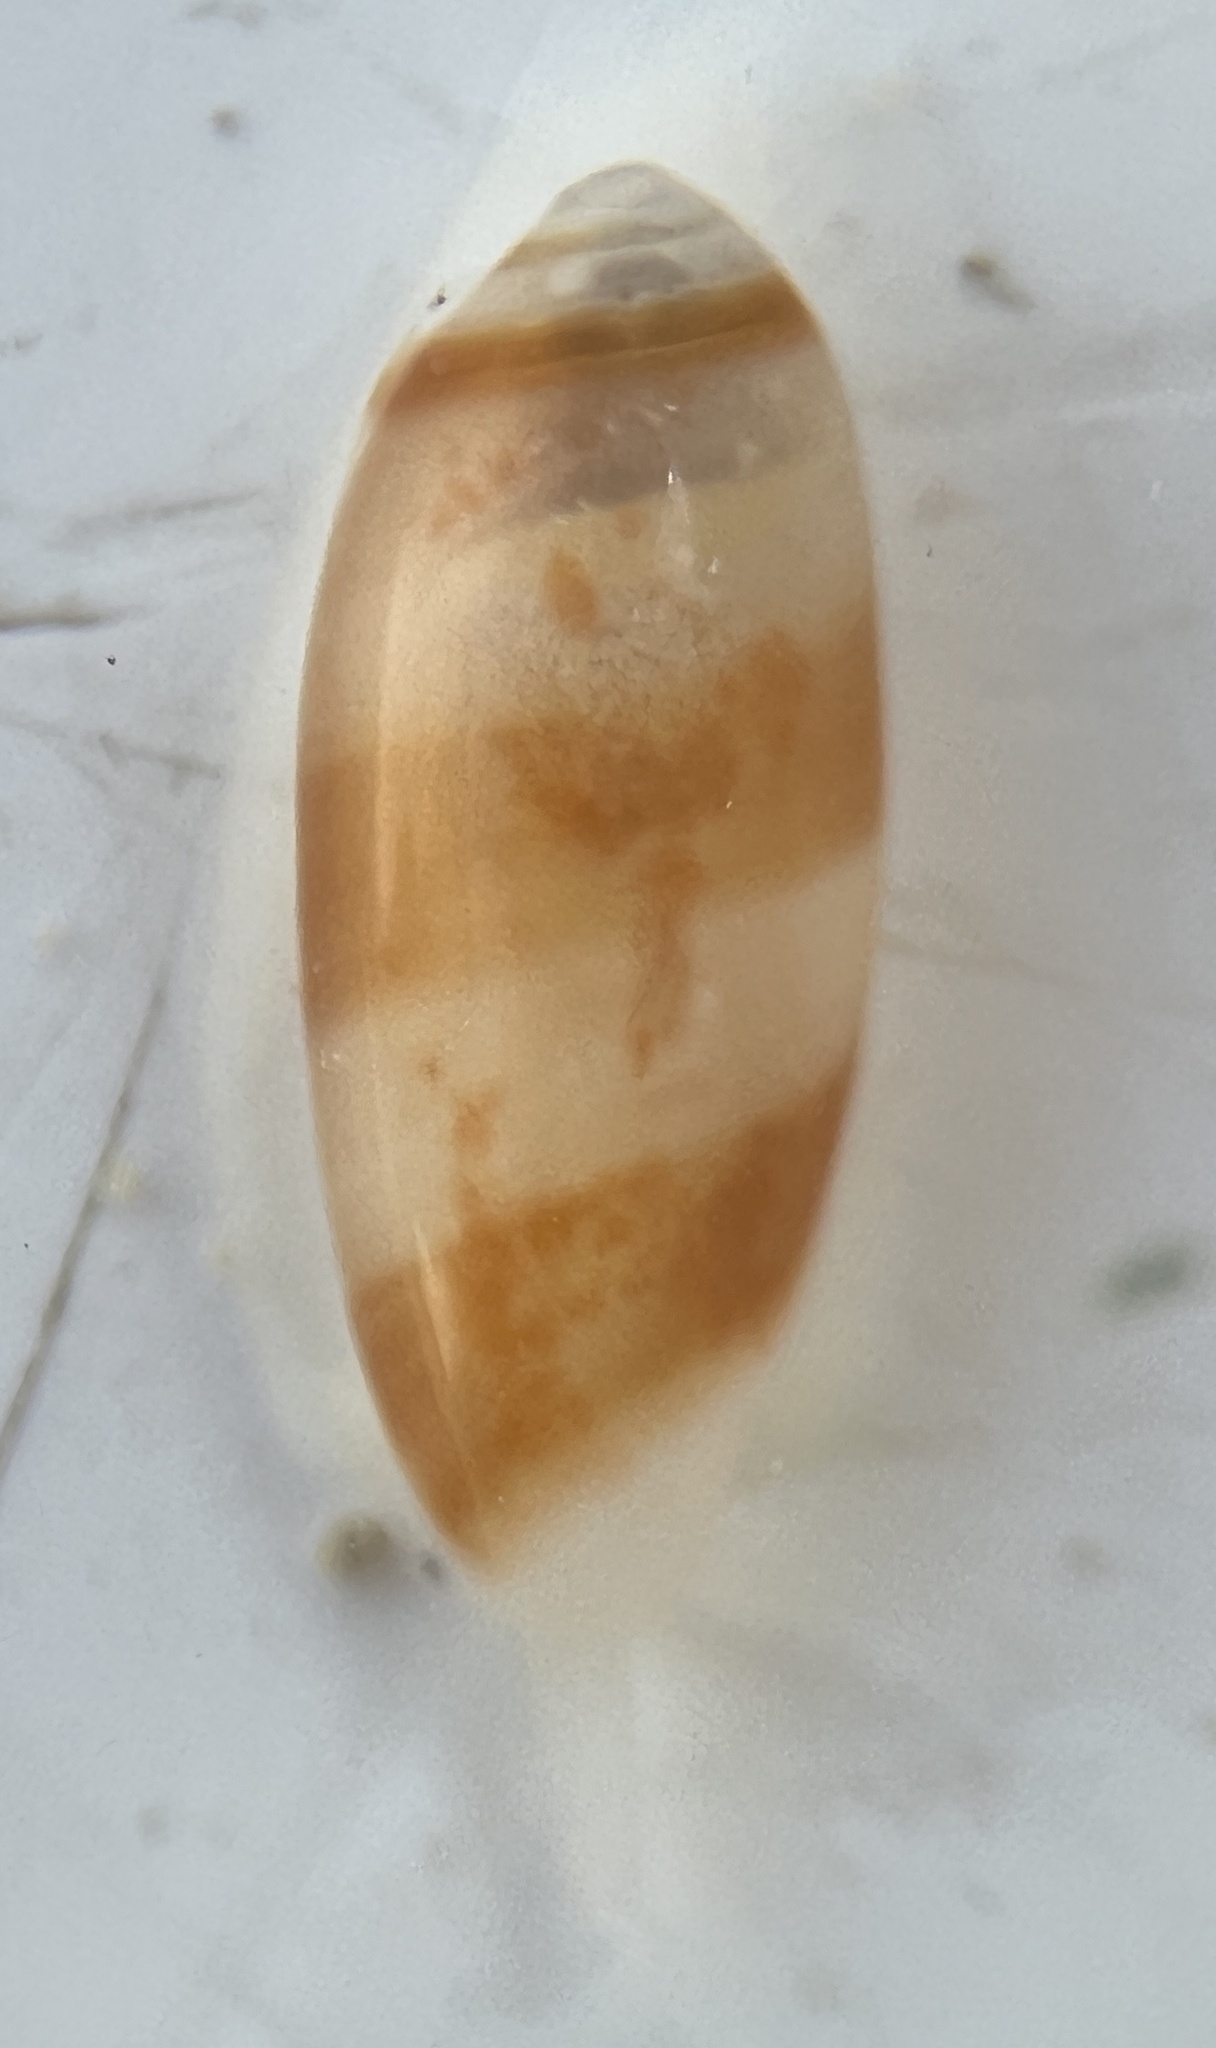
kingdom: Animalia
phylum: Mollusca
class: Gastropoda
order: Neogastropoda
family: Marginellidae
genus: Volvarina
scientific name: Volvarina albolineata
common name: White-line marginella
